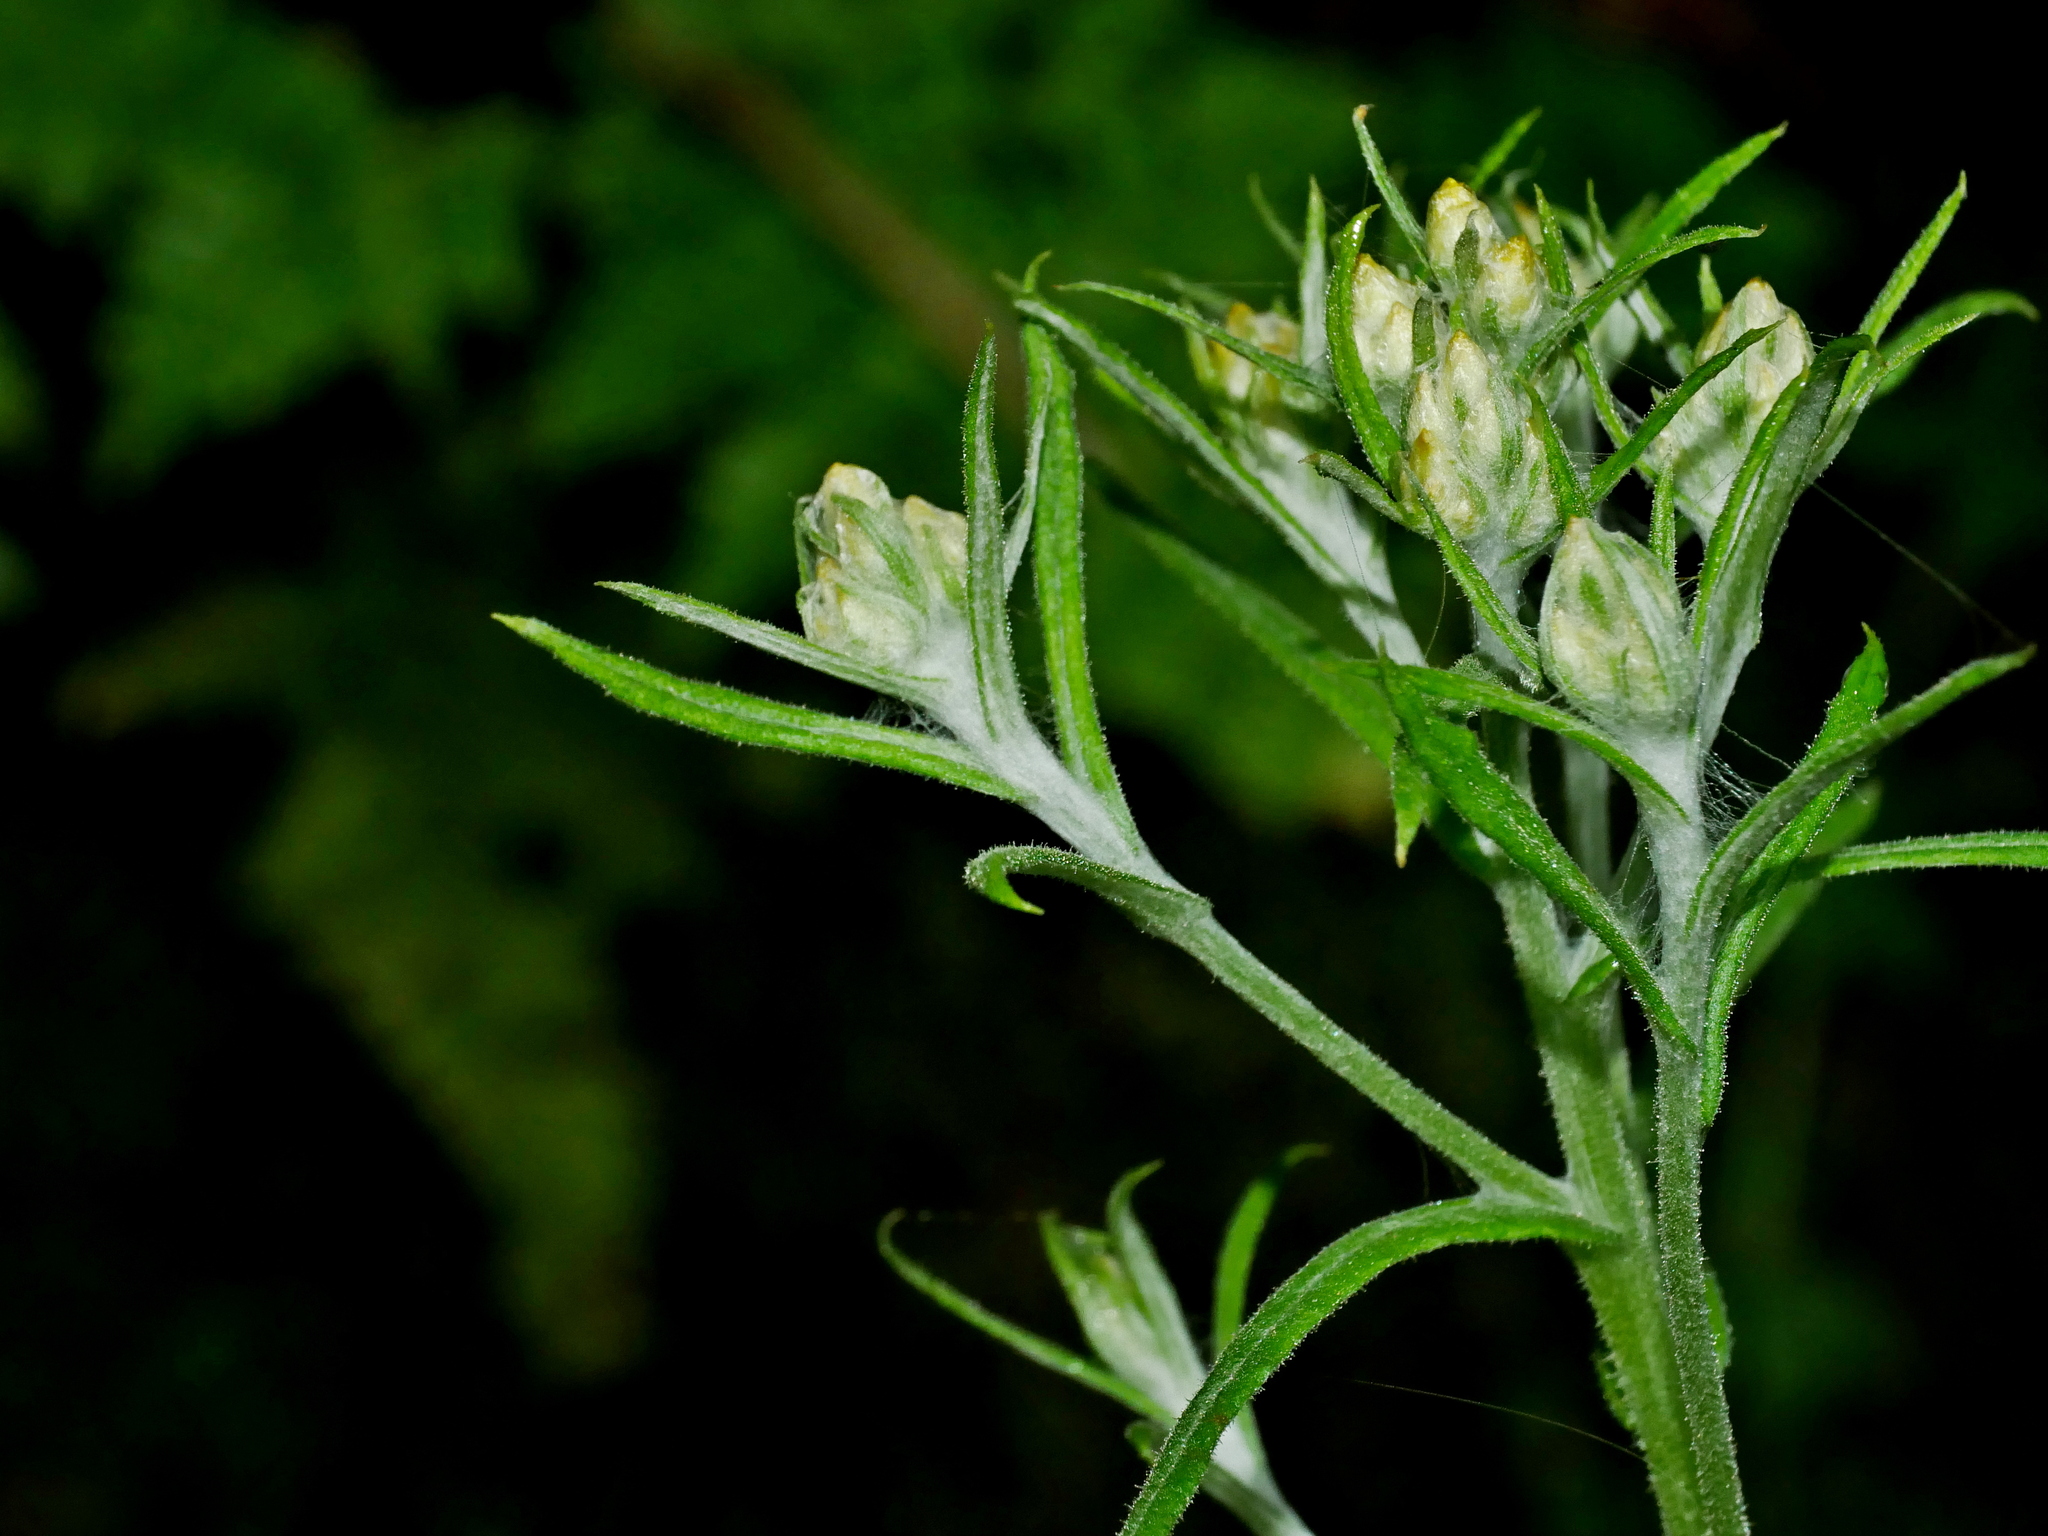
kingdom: Plantae
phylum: Tracheophyta
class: Magnoliopsida
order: Asterales
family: Asteraceae
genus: Pseudognaphalium
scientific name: Pseudognaphalium hypoleucum
